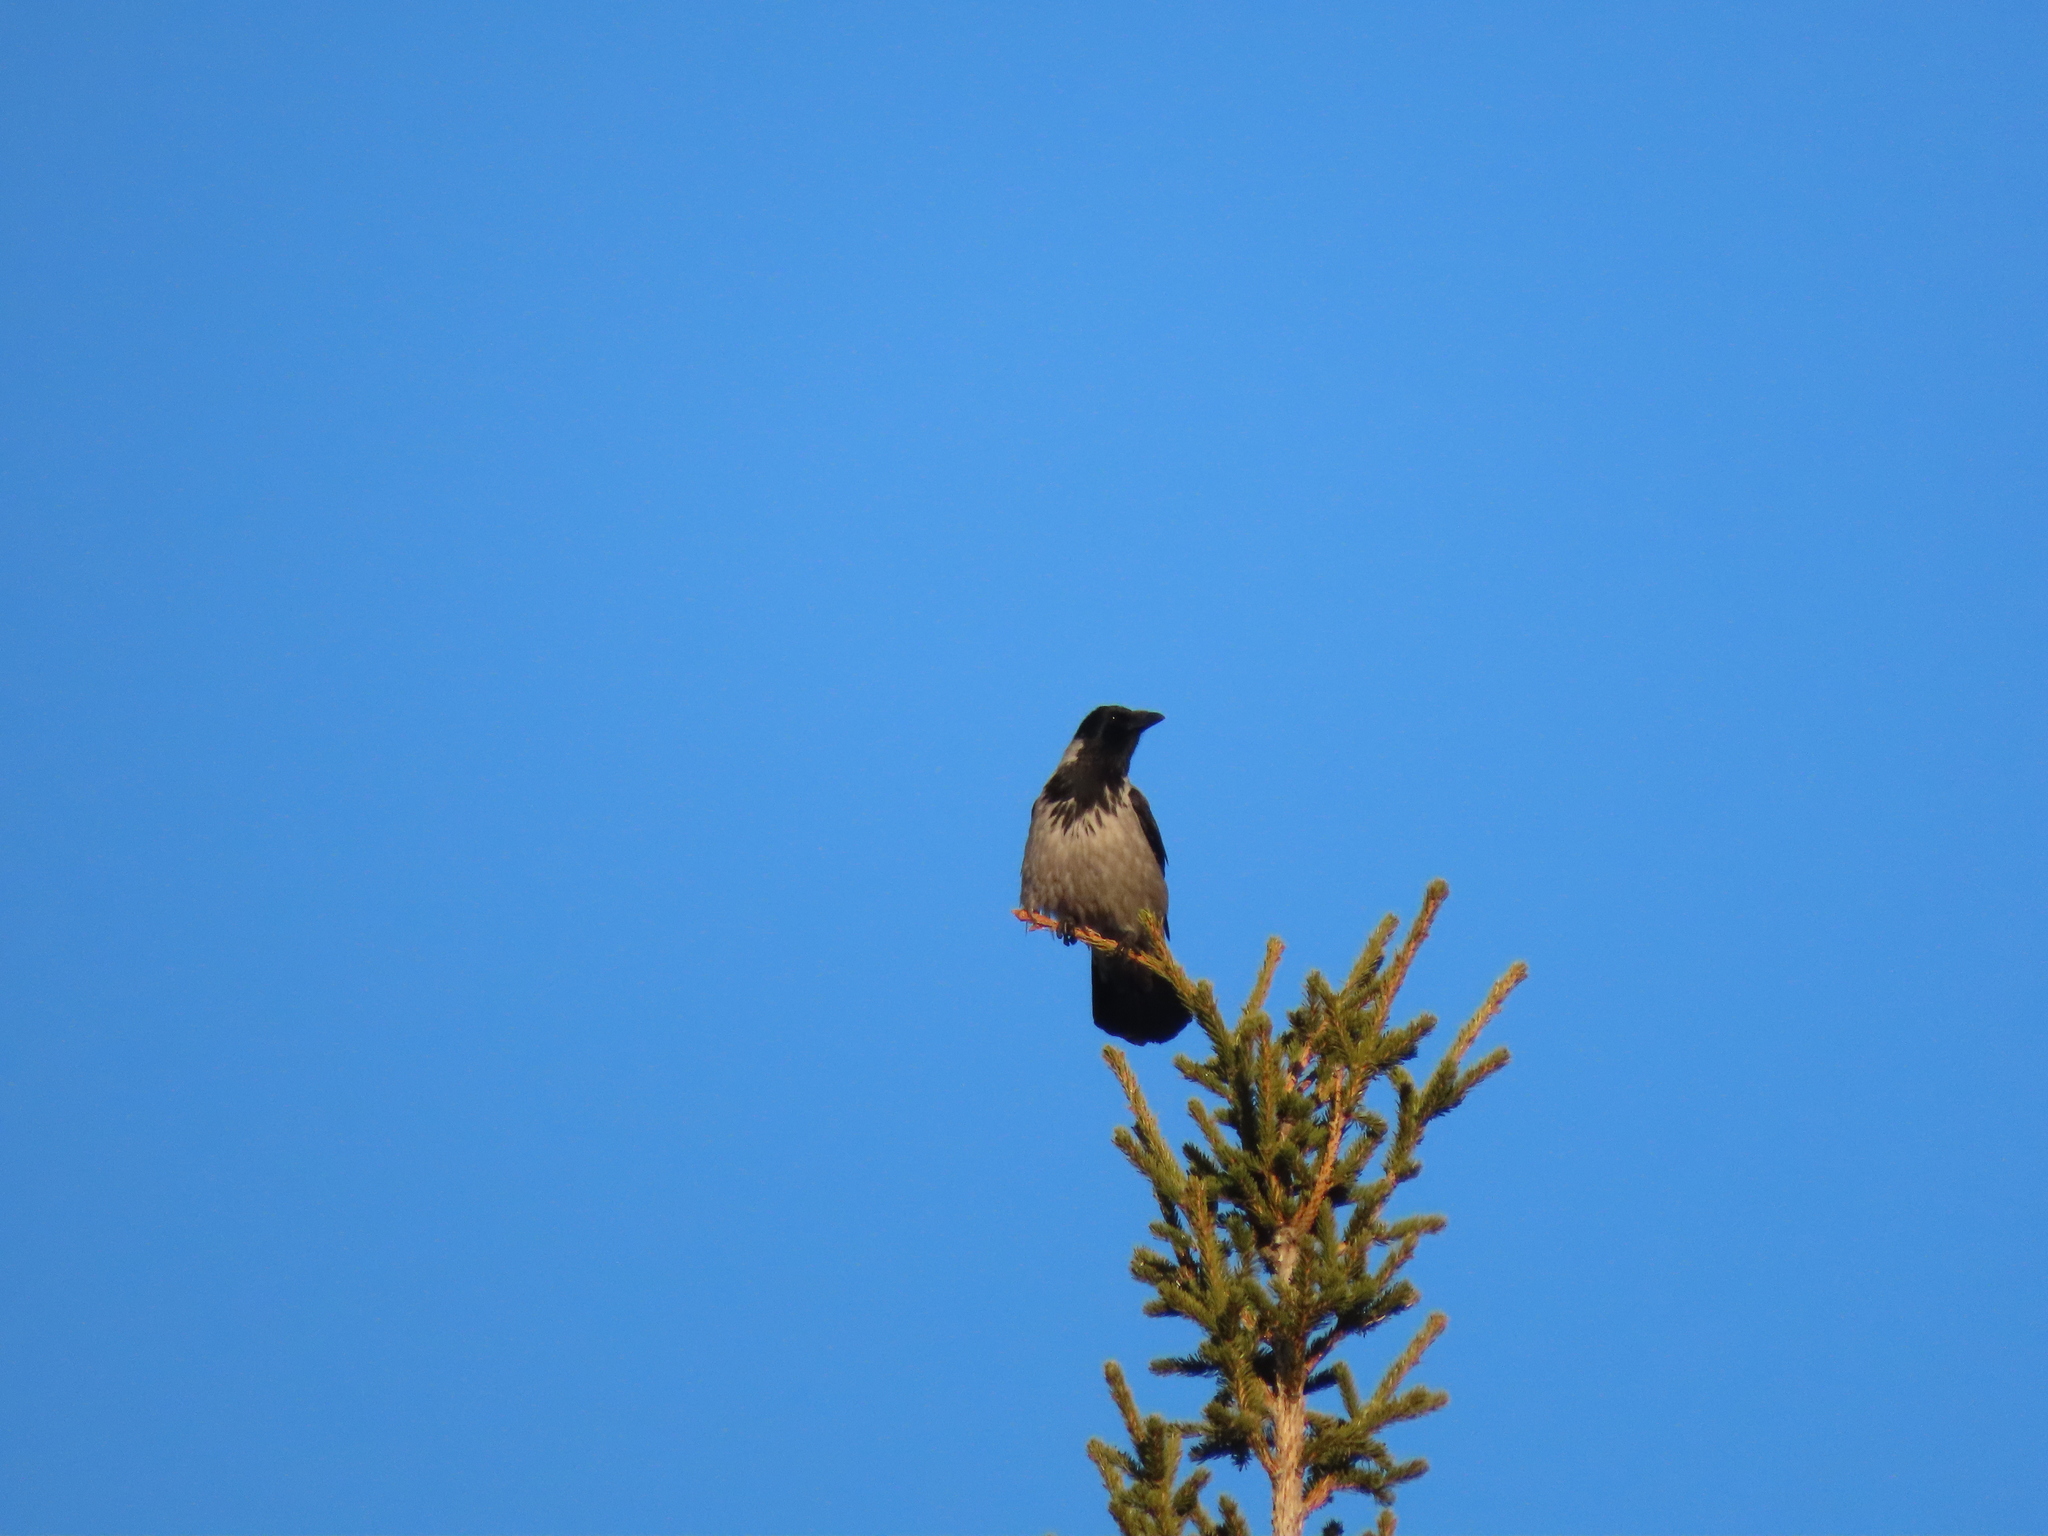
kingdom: Animalia
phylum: Chordata
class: Aves
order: Passeriformes
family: Corvidae
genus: Corvus
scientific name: Corvus cornix
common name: Hooded crow
